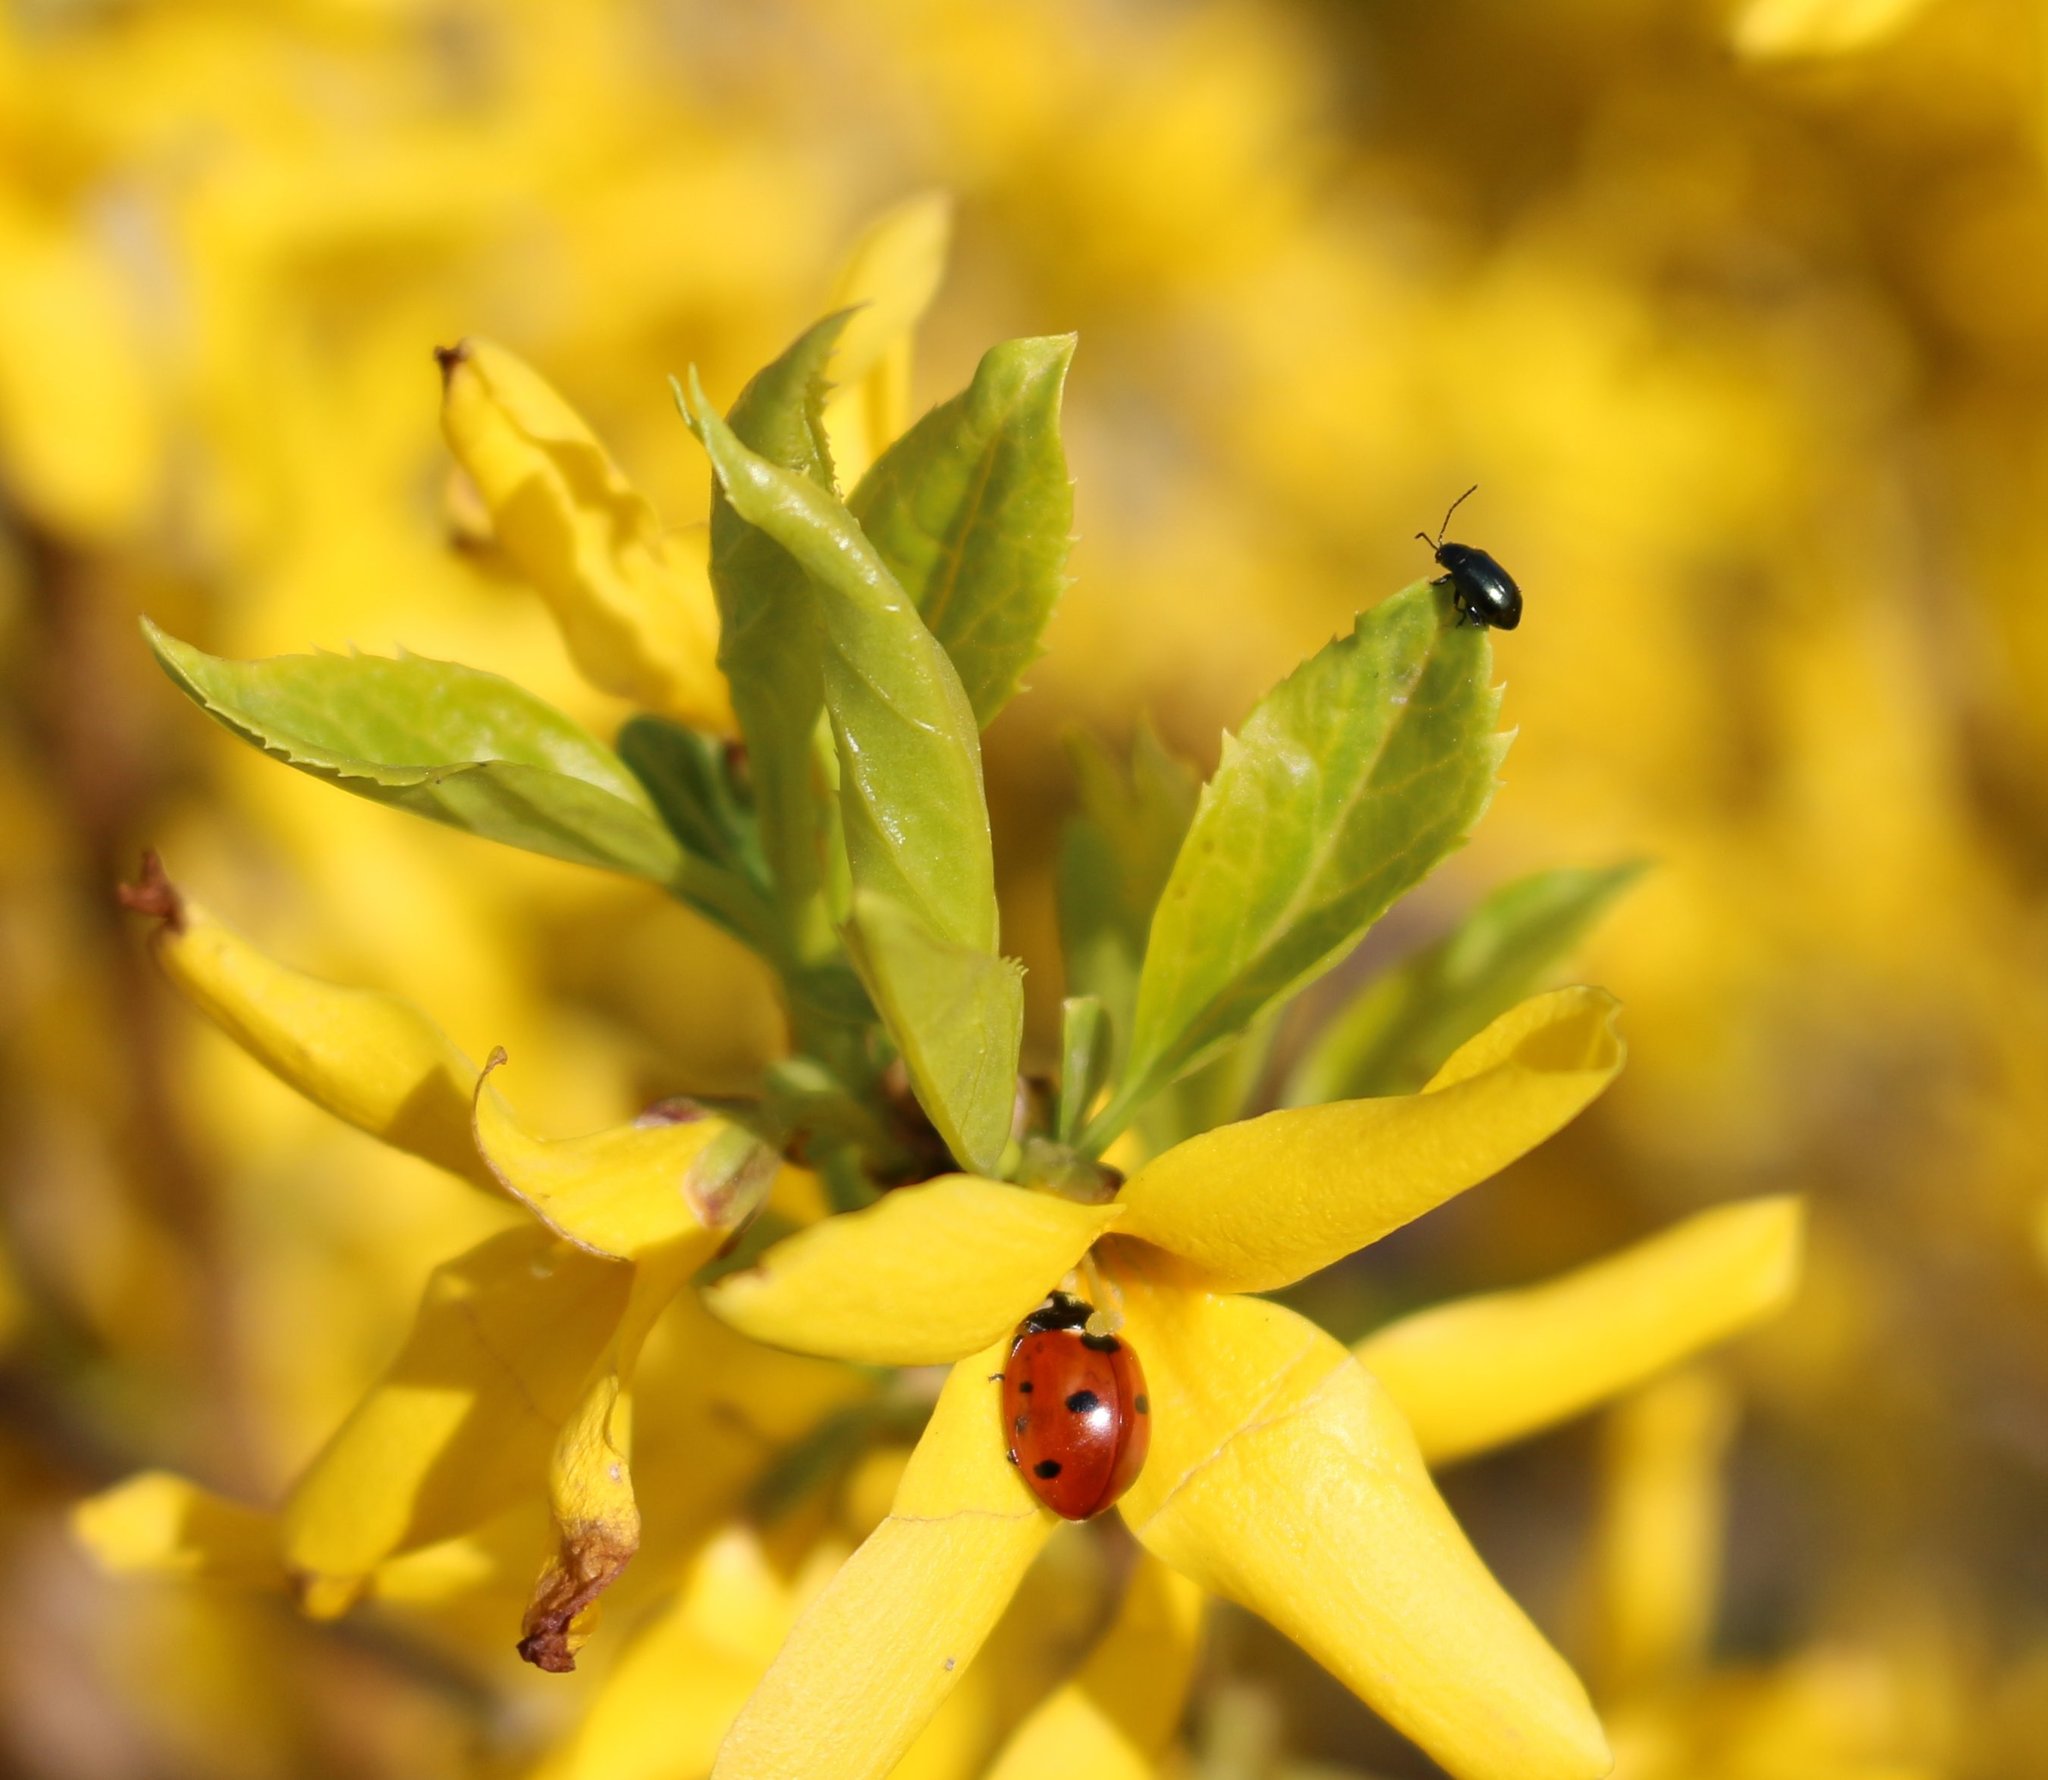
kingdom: Animalia
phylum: Arthropoda
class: Insecta
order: Coleoptera
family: Coccinellidae
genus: Coccinella
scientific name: Coccinella septempunctata
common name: Sevenspotted lady beetle
